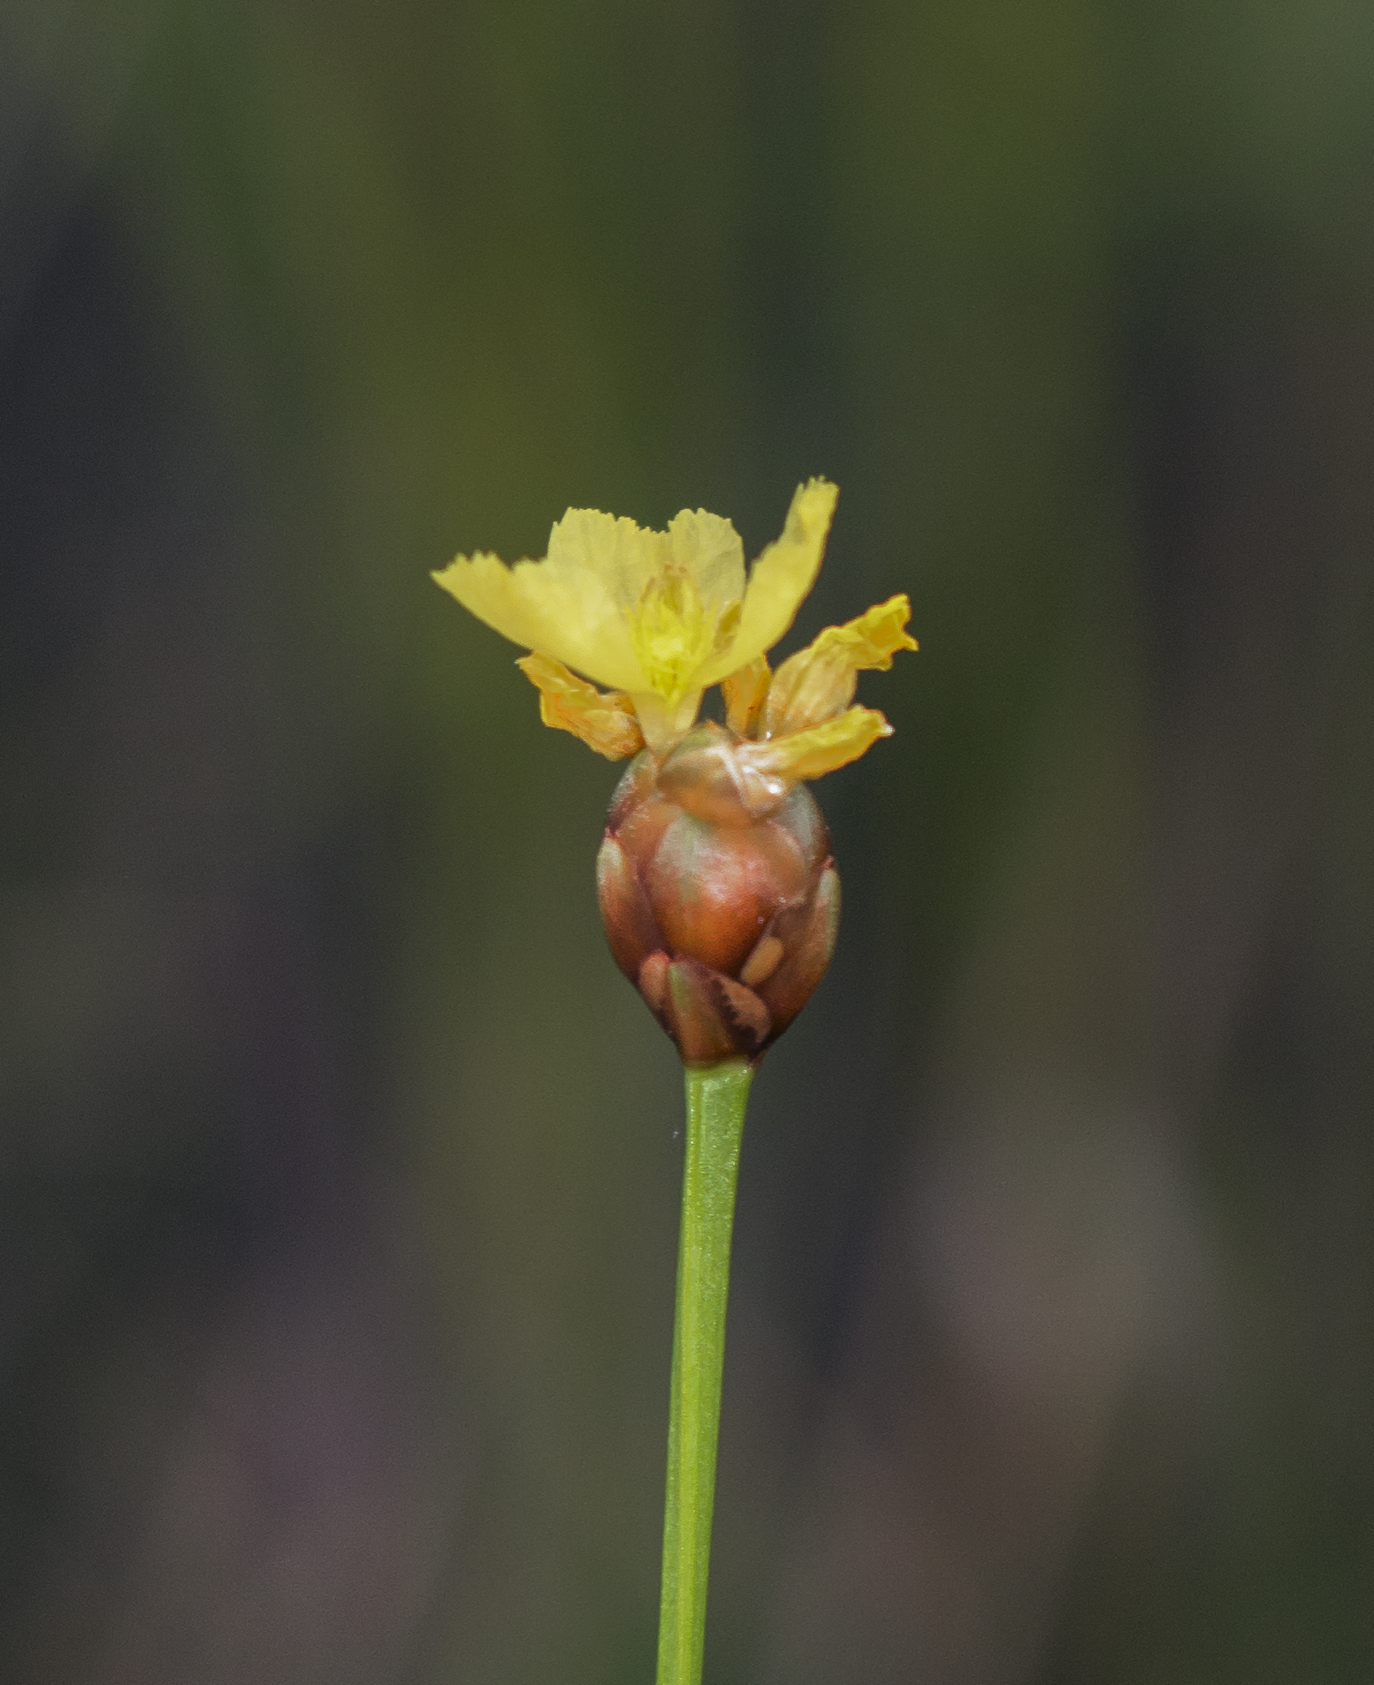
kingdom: Plantae
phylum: Tracheophyta
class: Liliopsida
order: Poales
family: Xyridaceae
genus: Xyris
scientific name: Xyris torta
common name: Common yelloweyed grass
